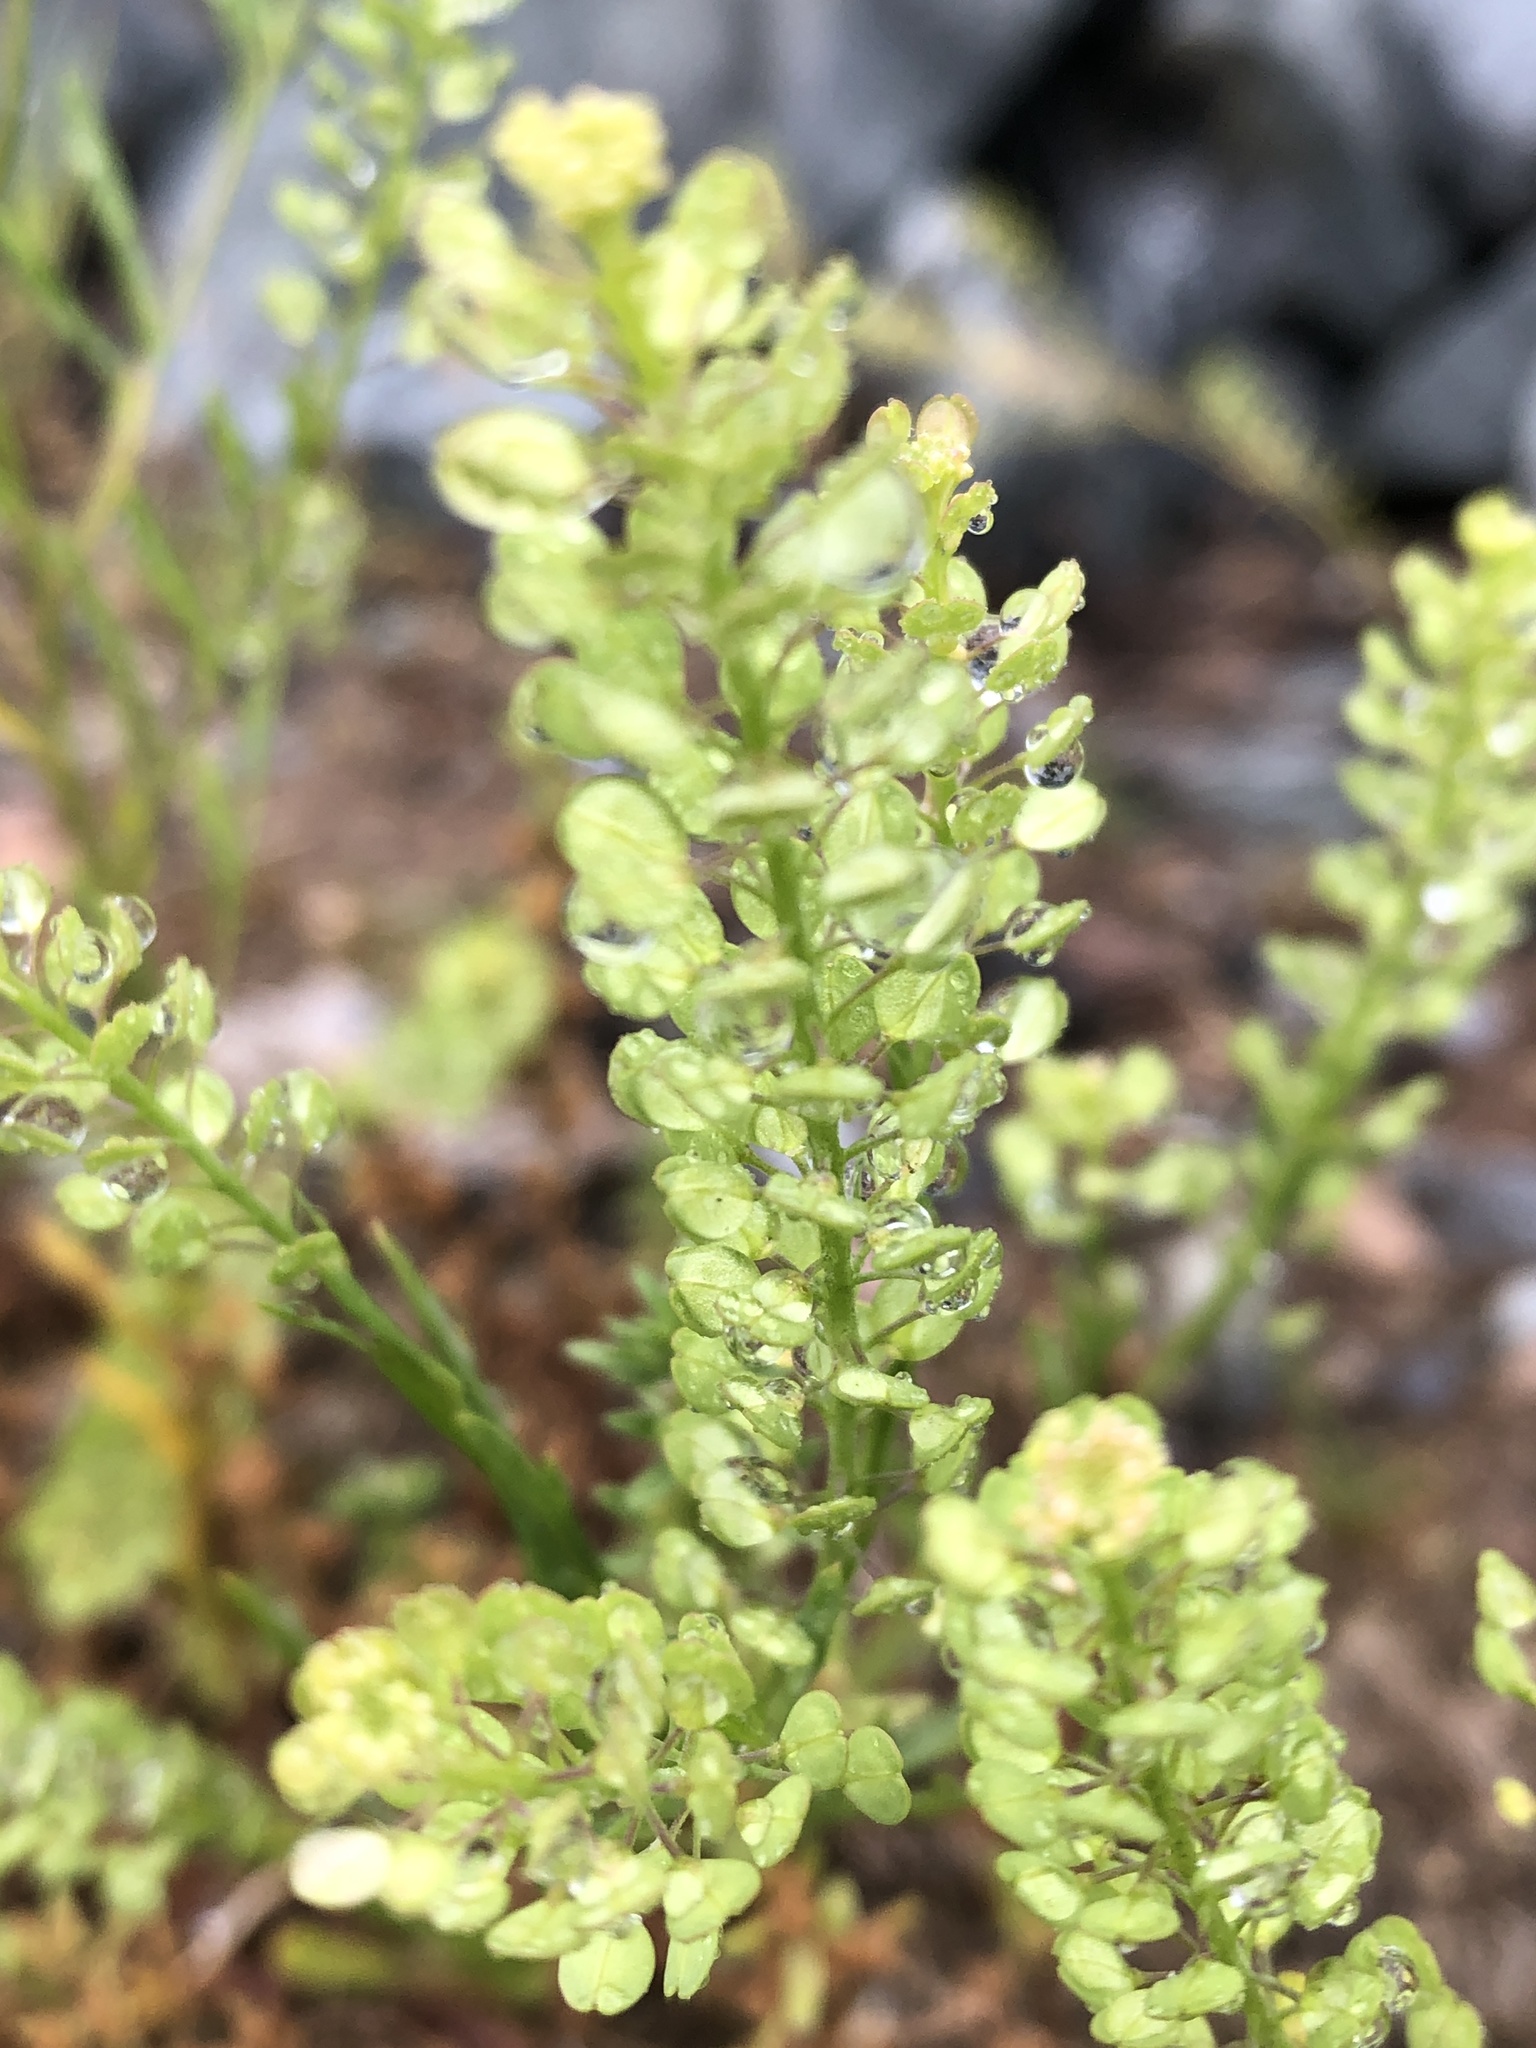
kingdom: Plantae
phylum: Tracheophyta
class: Magnoliopsida
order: Brassicales
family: Brassicaceae
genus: Lepidium
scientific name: Lepidium densiflorum
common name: Miner's pepperwort
